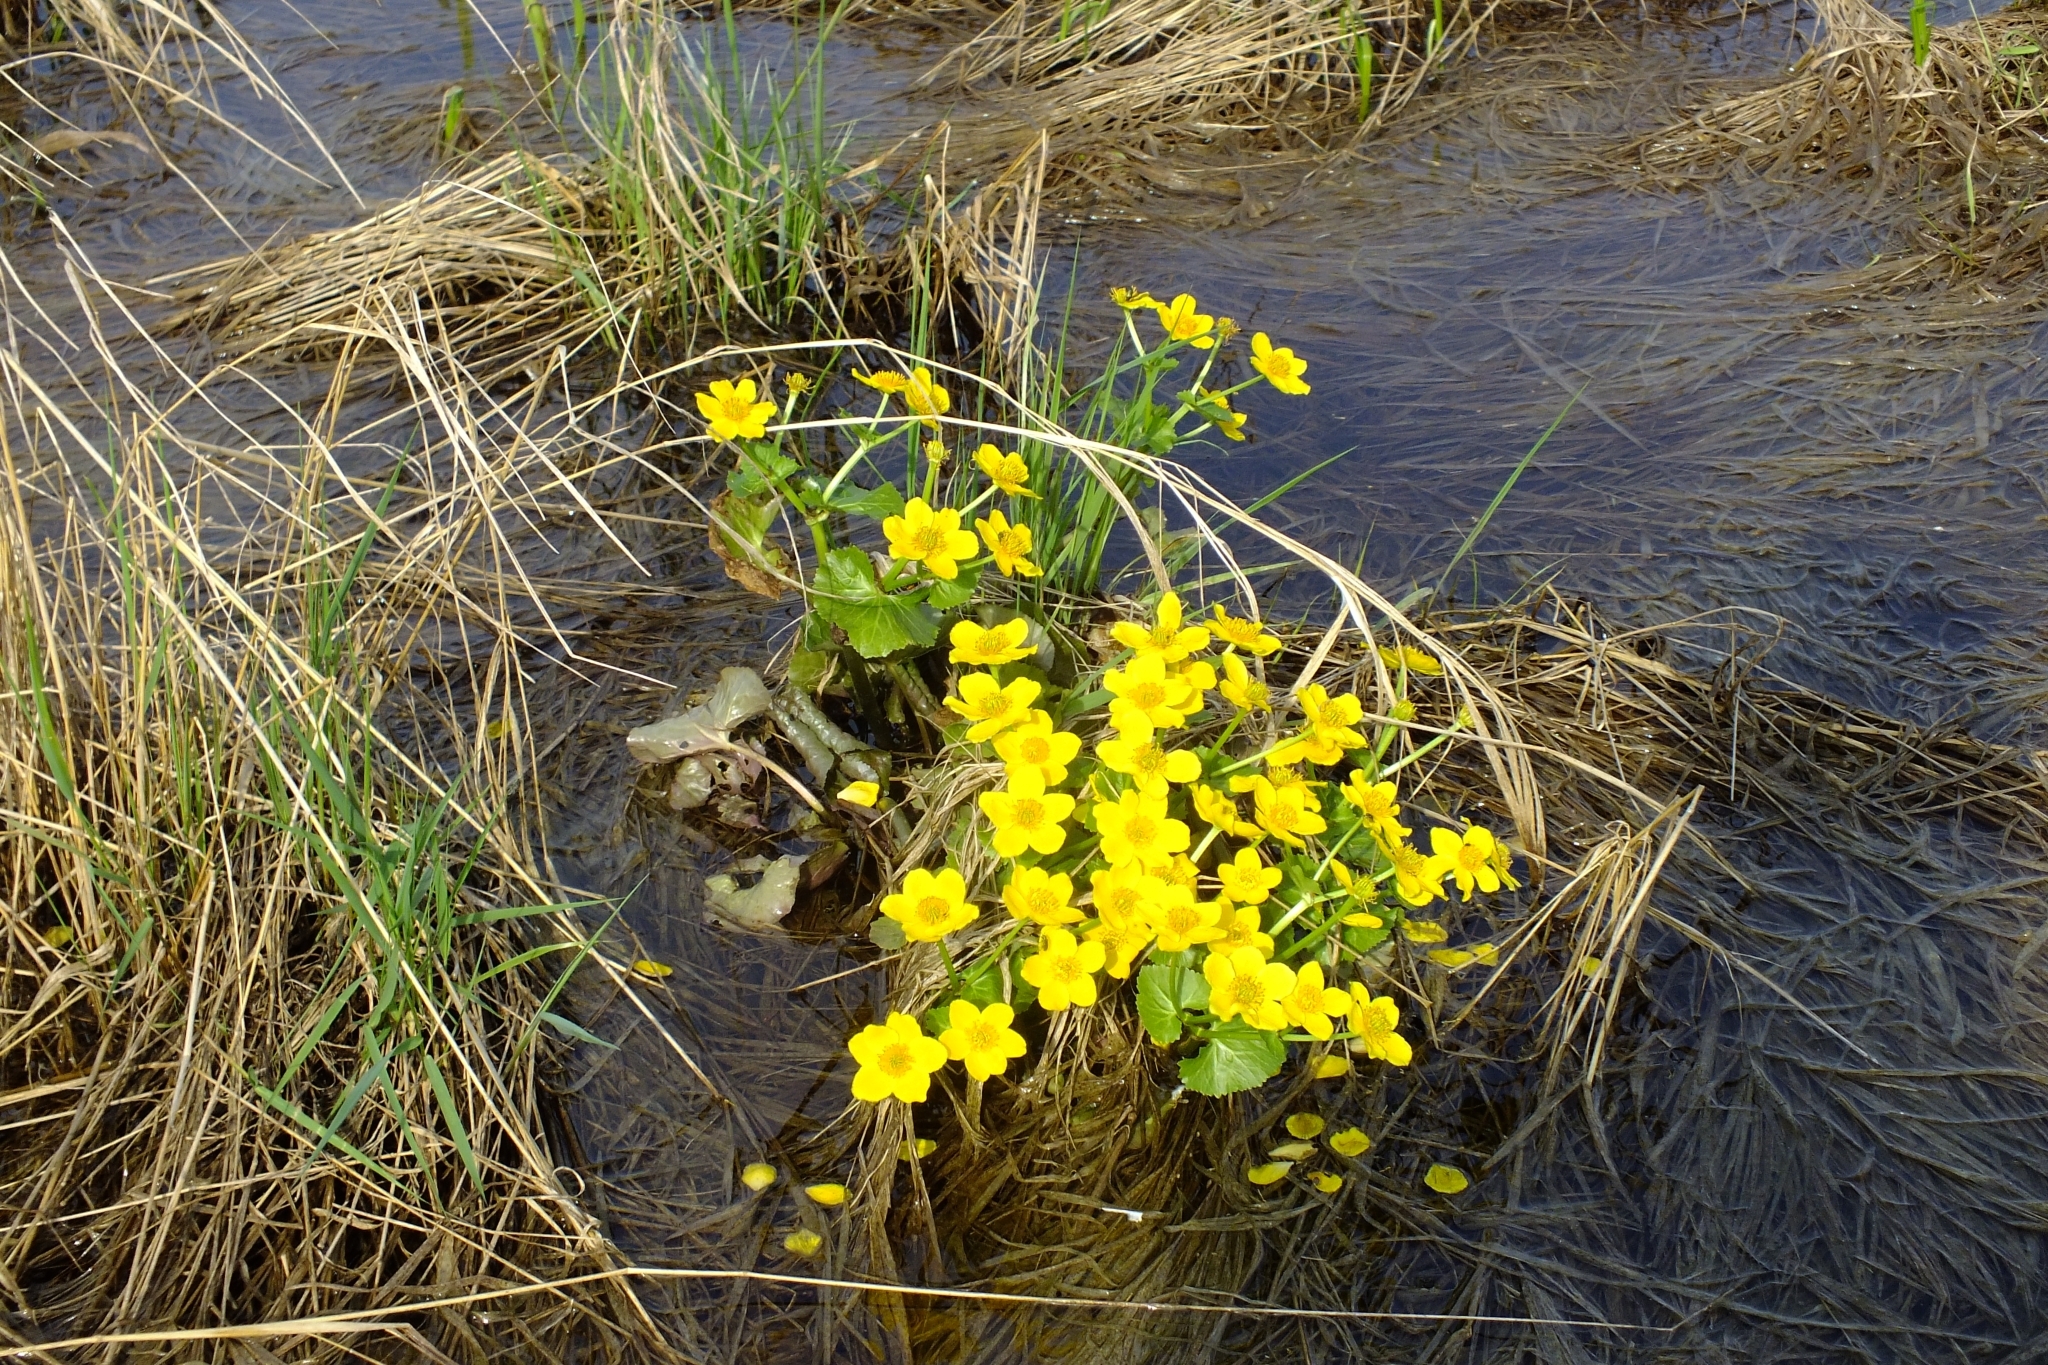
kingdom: Plantae
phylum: Tracheophyta
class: Magnoliopsida
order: Ranunculales
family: Ranunculaceae
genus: Caltha
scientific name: Caltha palustris
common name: Marsh marigold
